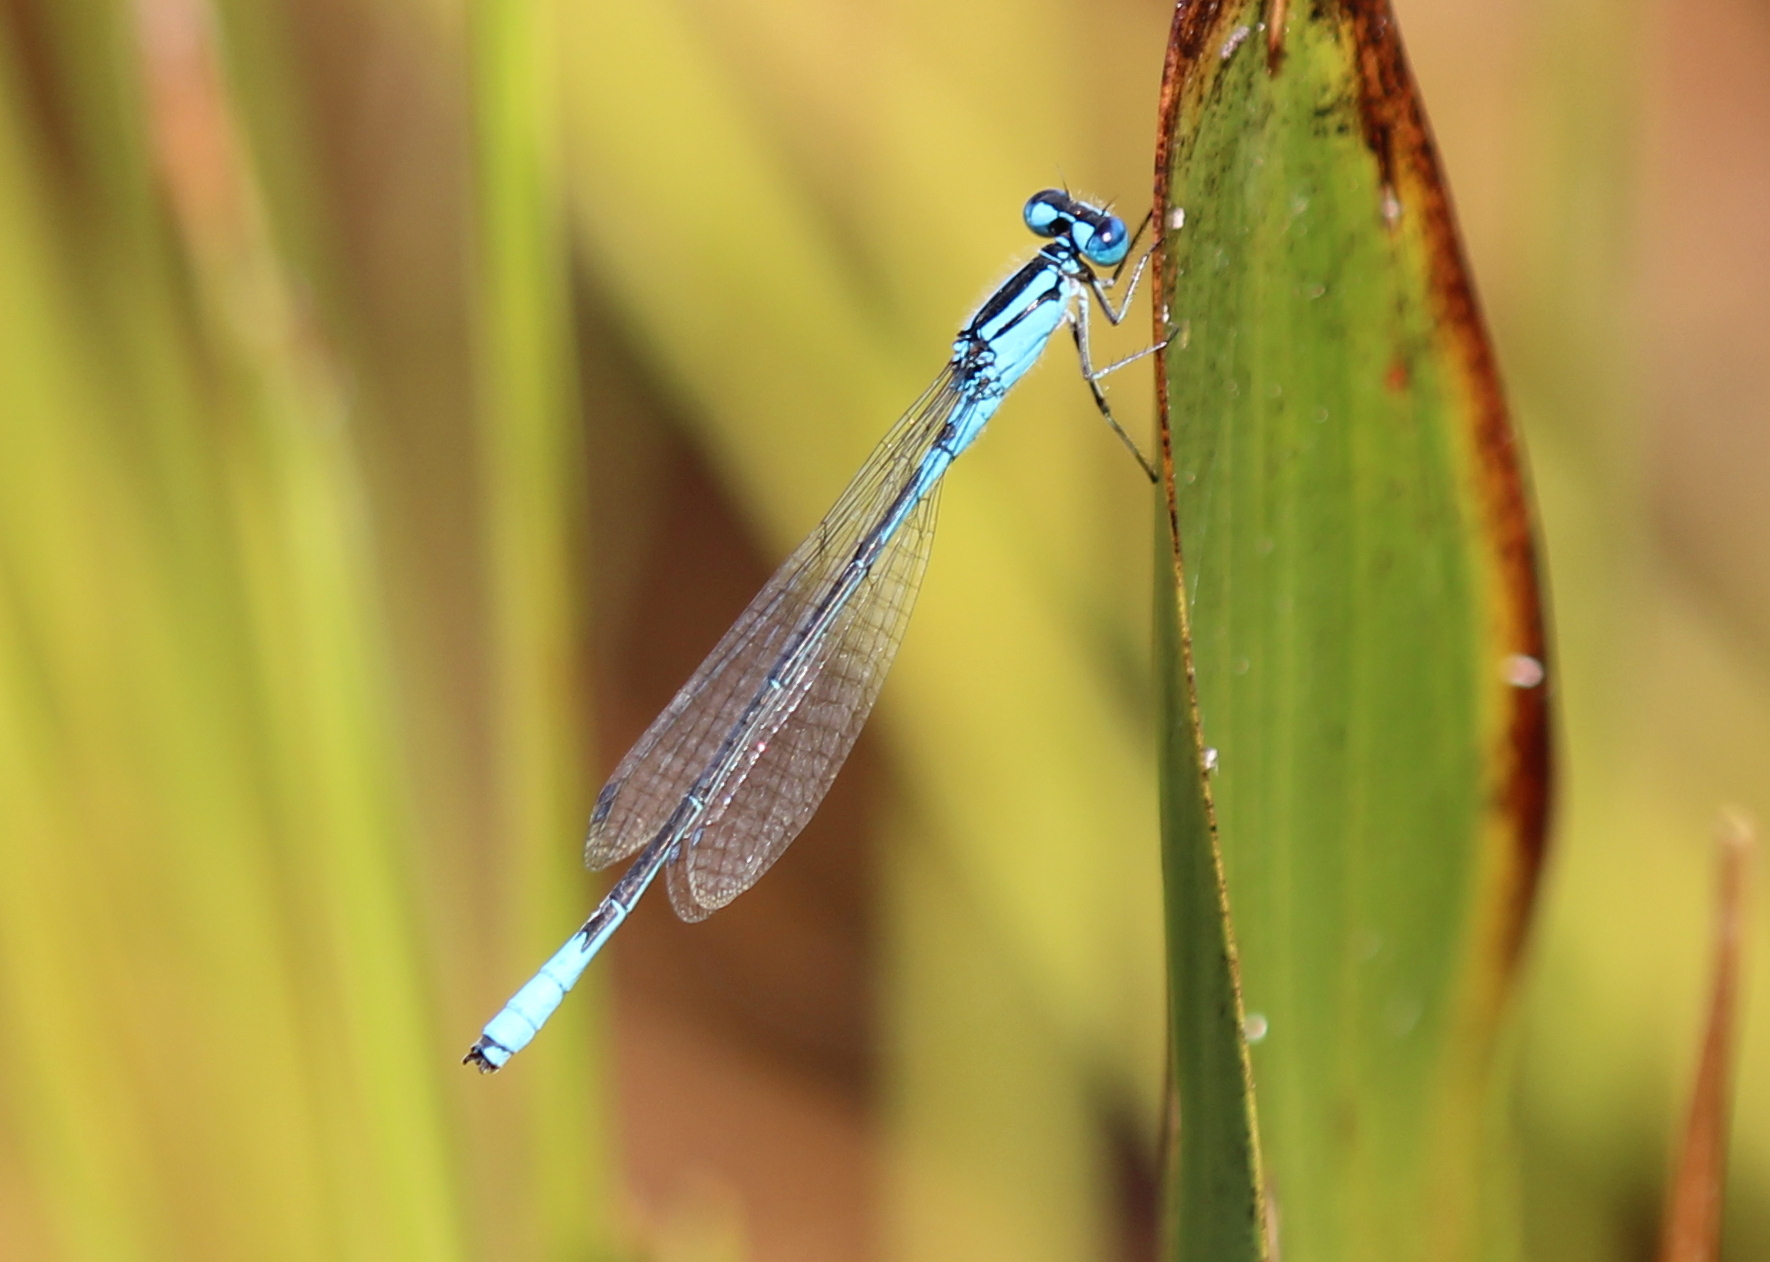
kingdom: Animalia
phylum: Arthropoda
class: Insecta
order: Odonata
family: Coenagrionidae
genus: Enallagma
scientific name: Enallagma aspersum
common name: Azure bluet
